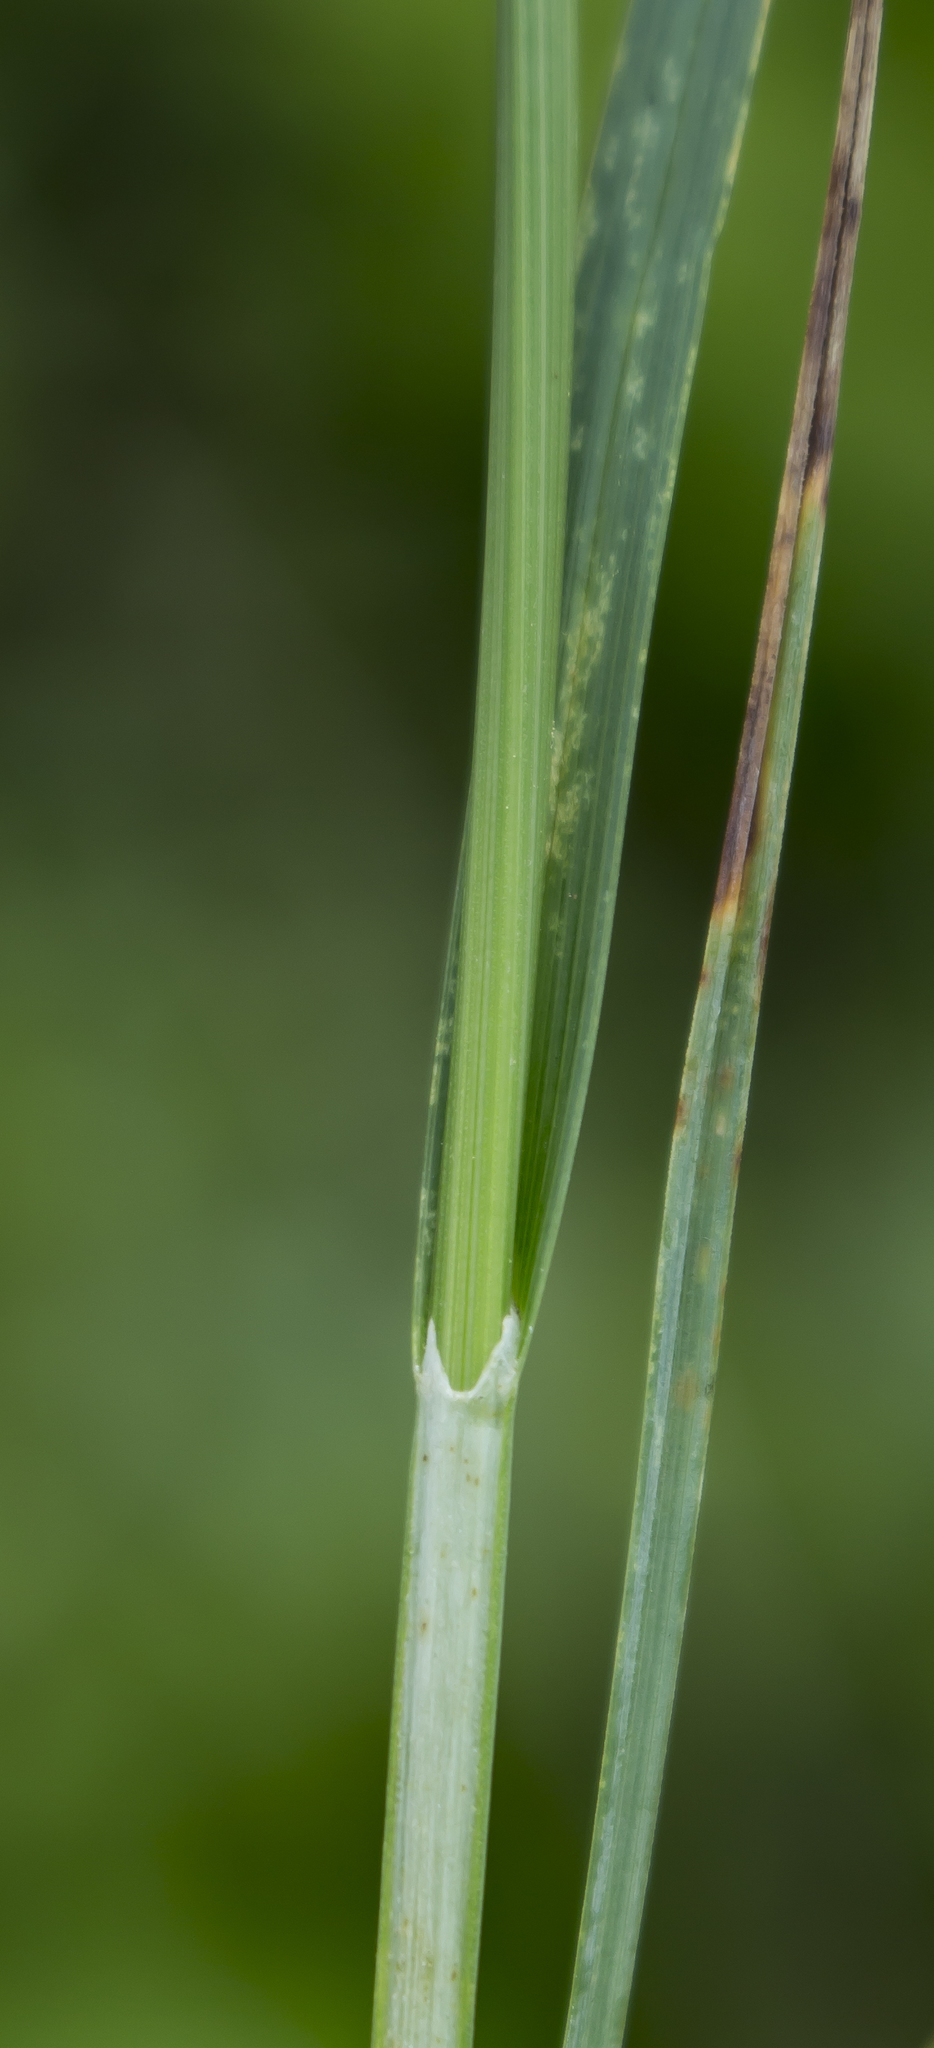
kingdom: Plantae
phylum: Tracheophyta
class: Liliopsida
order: Poales
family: Cyperaceae
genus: Carex
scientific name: Carex meadii
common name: Mead's sedge
